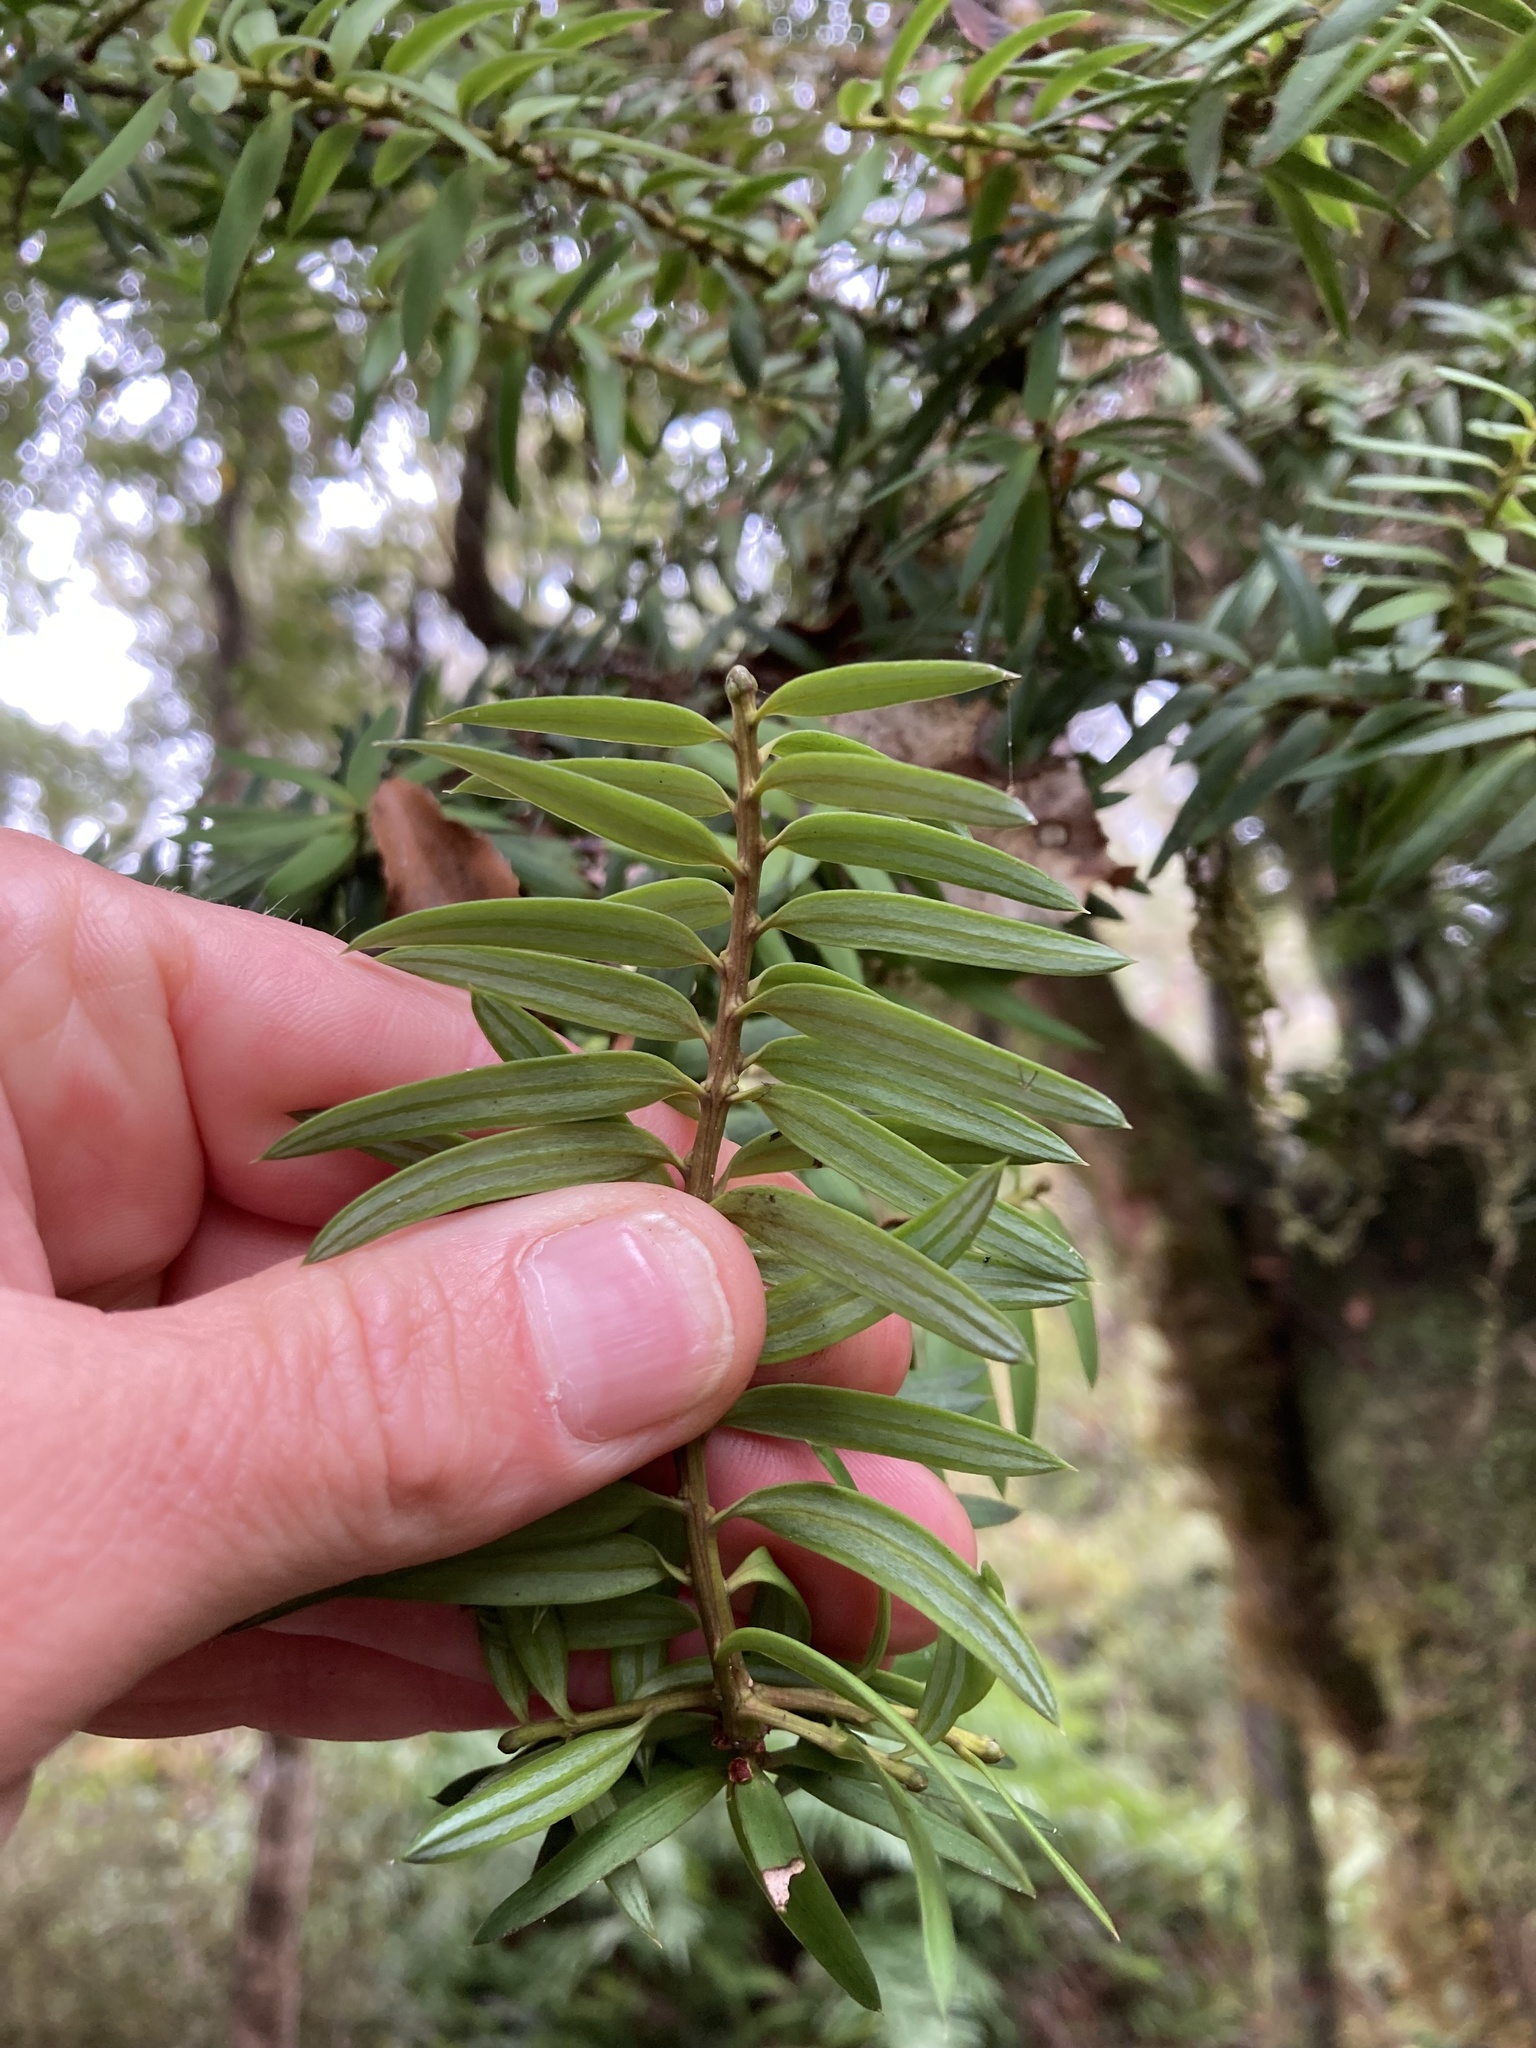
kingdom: Plantae
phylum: Tracheophyta
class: Pinopsida
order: Pinales
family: Podocarpaceae
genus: Podocarpus
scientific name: Podocarpus laetus
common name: Hall's totara
